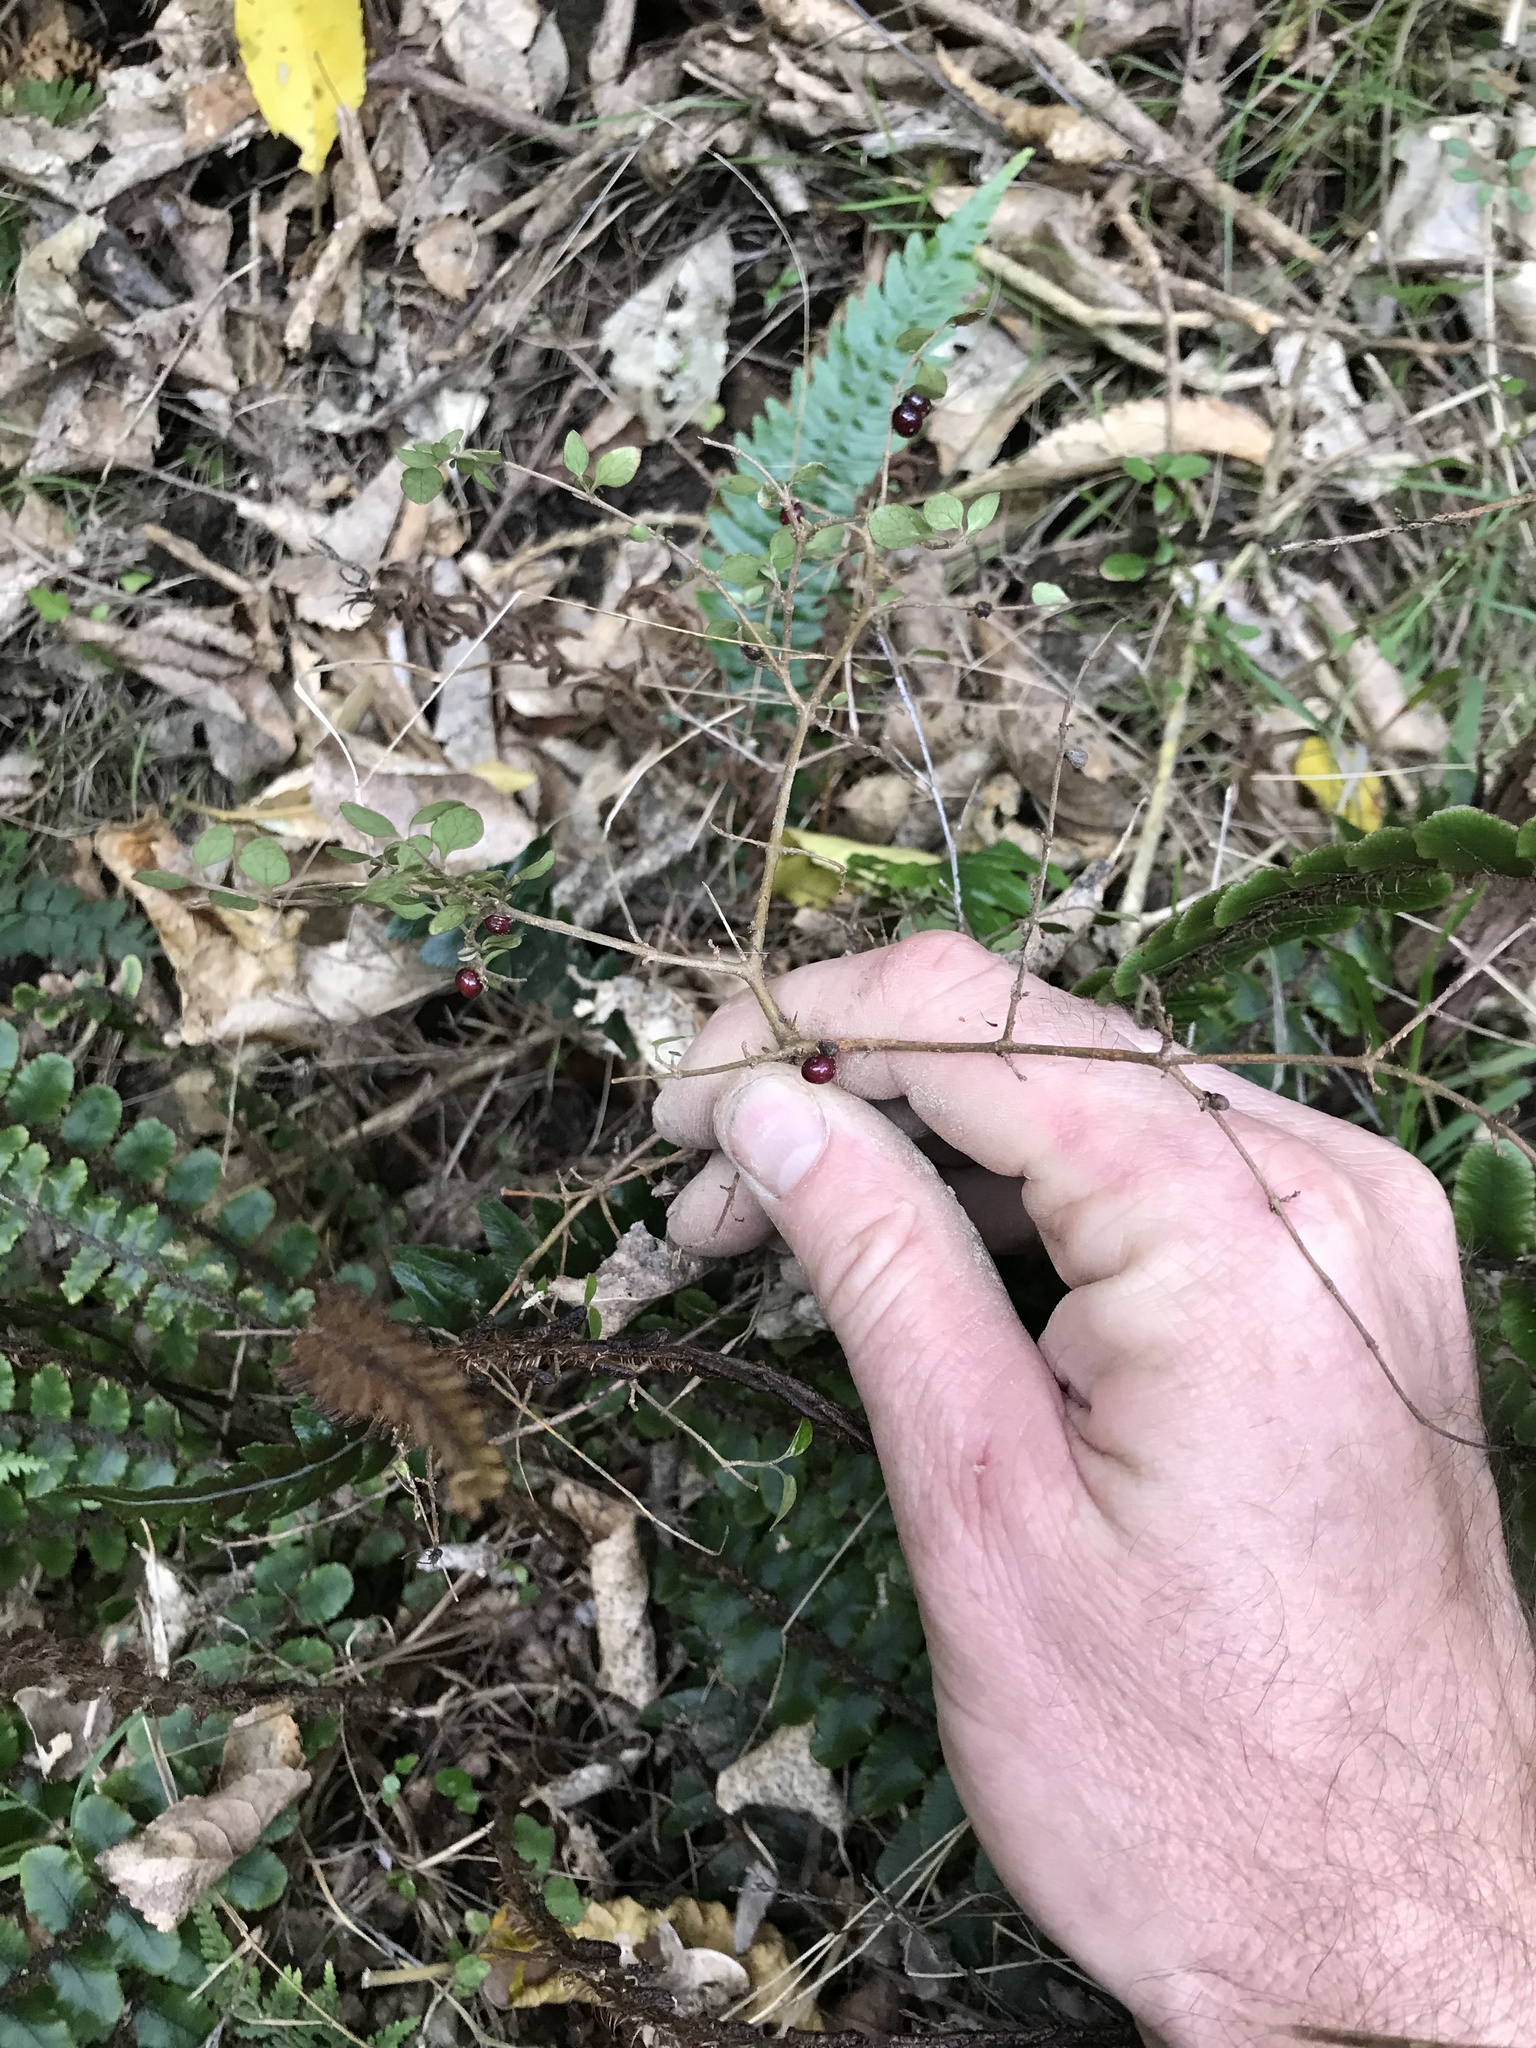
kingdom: Plantae
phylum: Tracheophyta
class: Magnoliopsida
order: Gentianales
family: Rubiaceae
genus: Coprosma
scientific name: Coprosma rhamnoides
